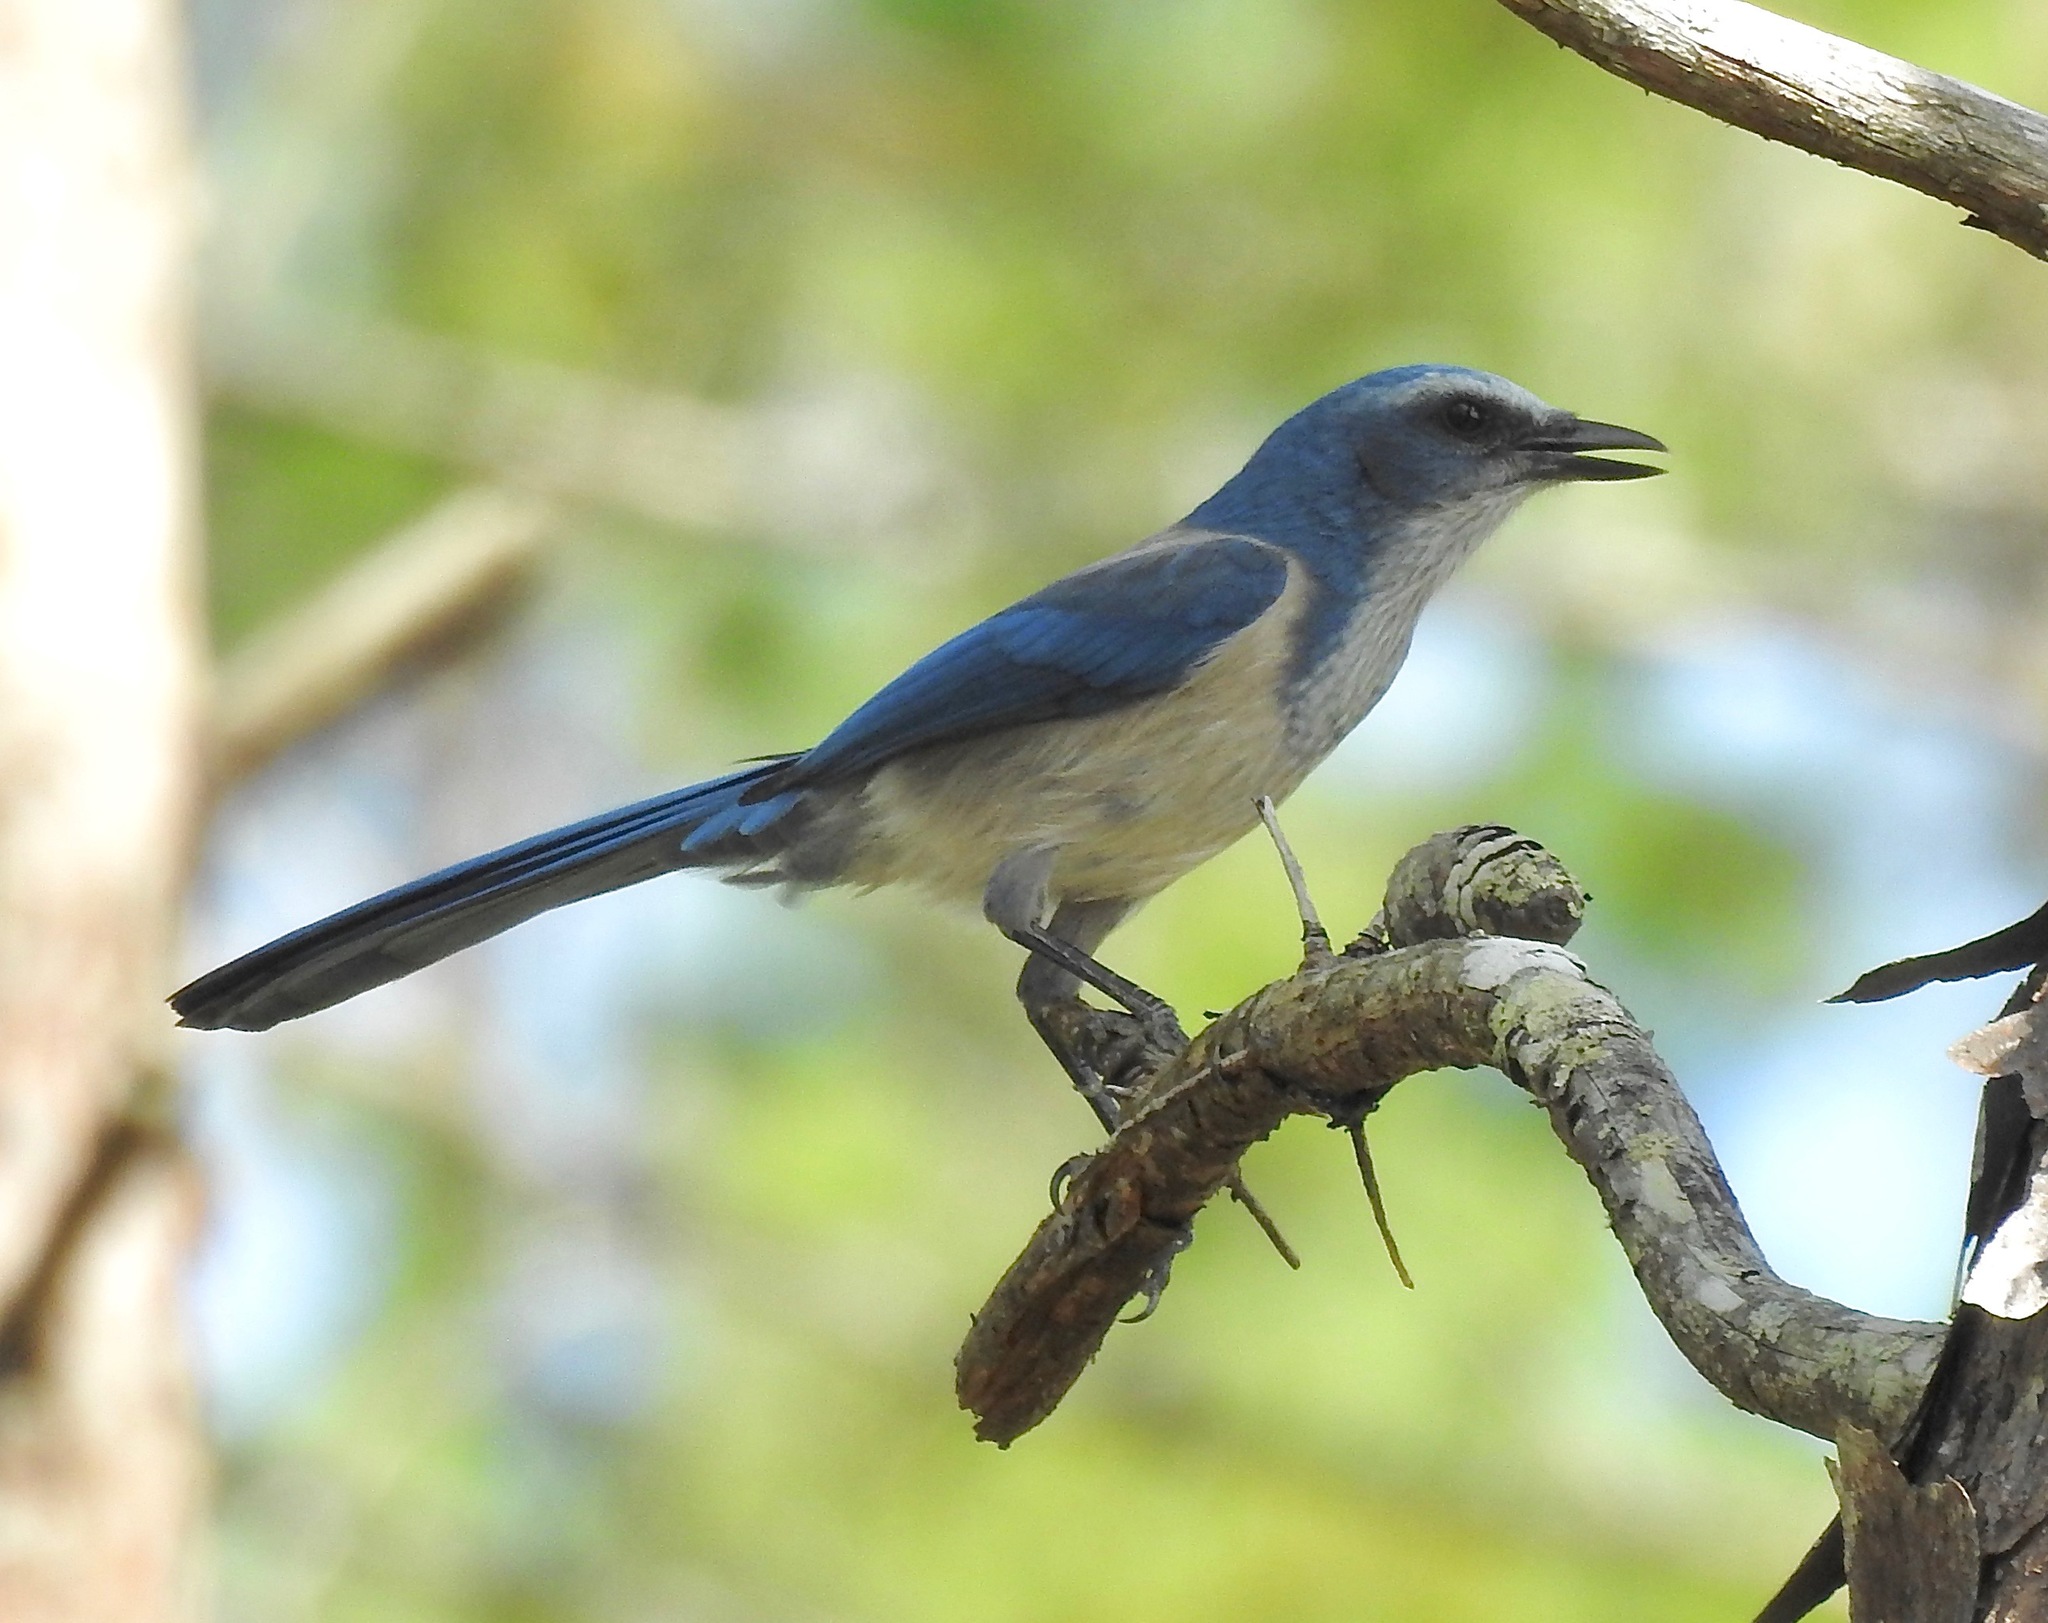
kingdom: Animalia
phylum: Chordata
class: Aves
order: Passeriformes
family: Corvidae
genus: Aphelocoma
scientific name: Aphelocoma coerulescens
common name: Florida scrub jay
